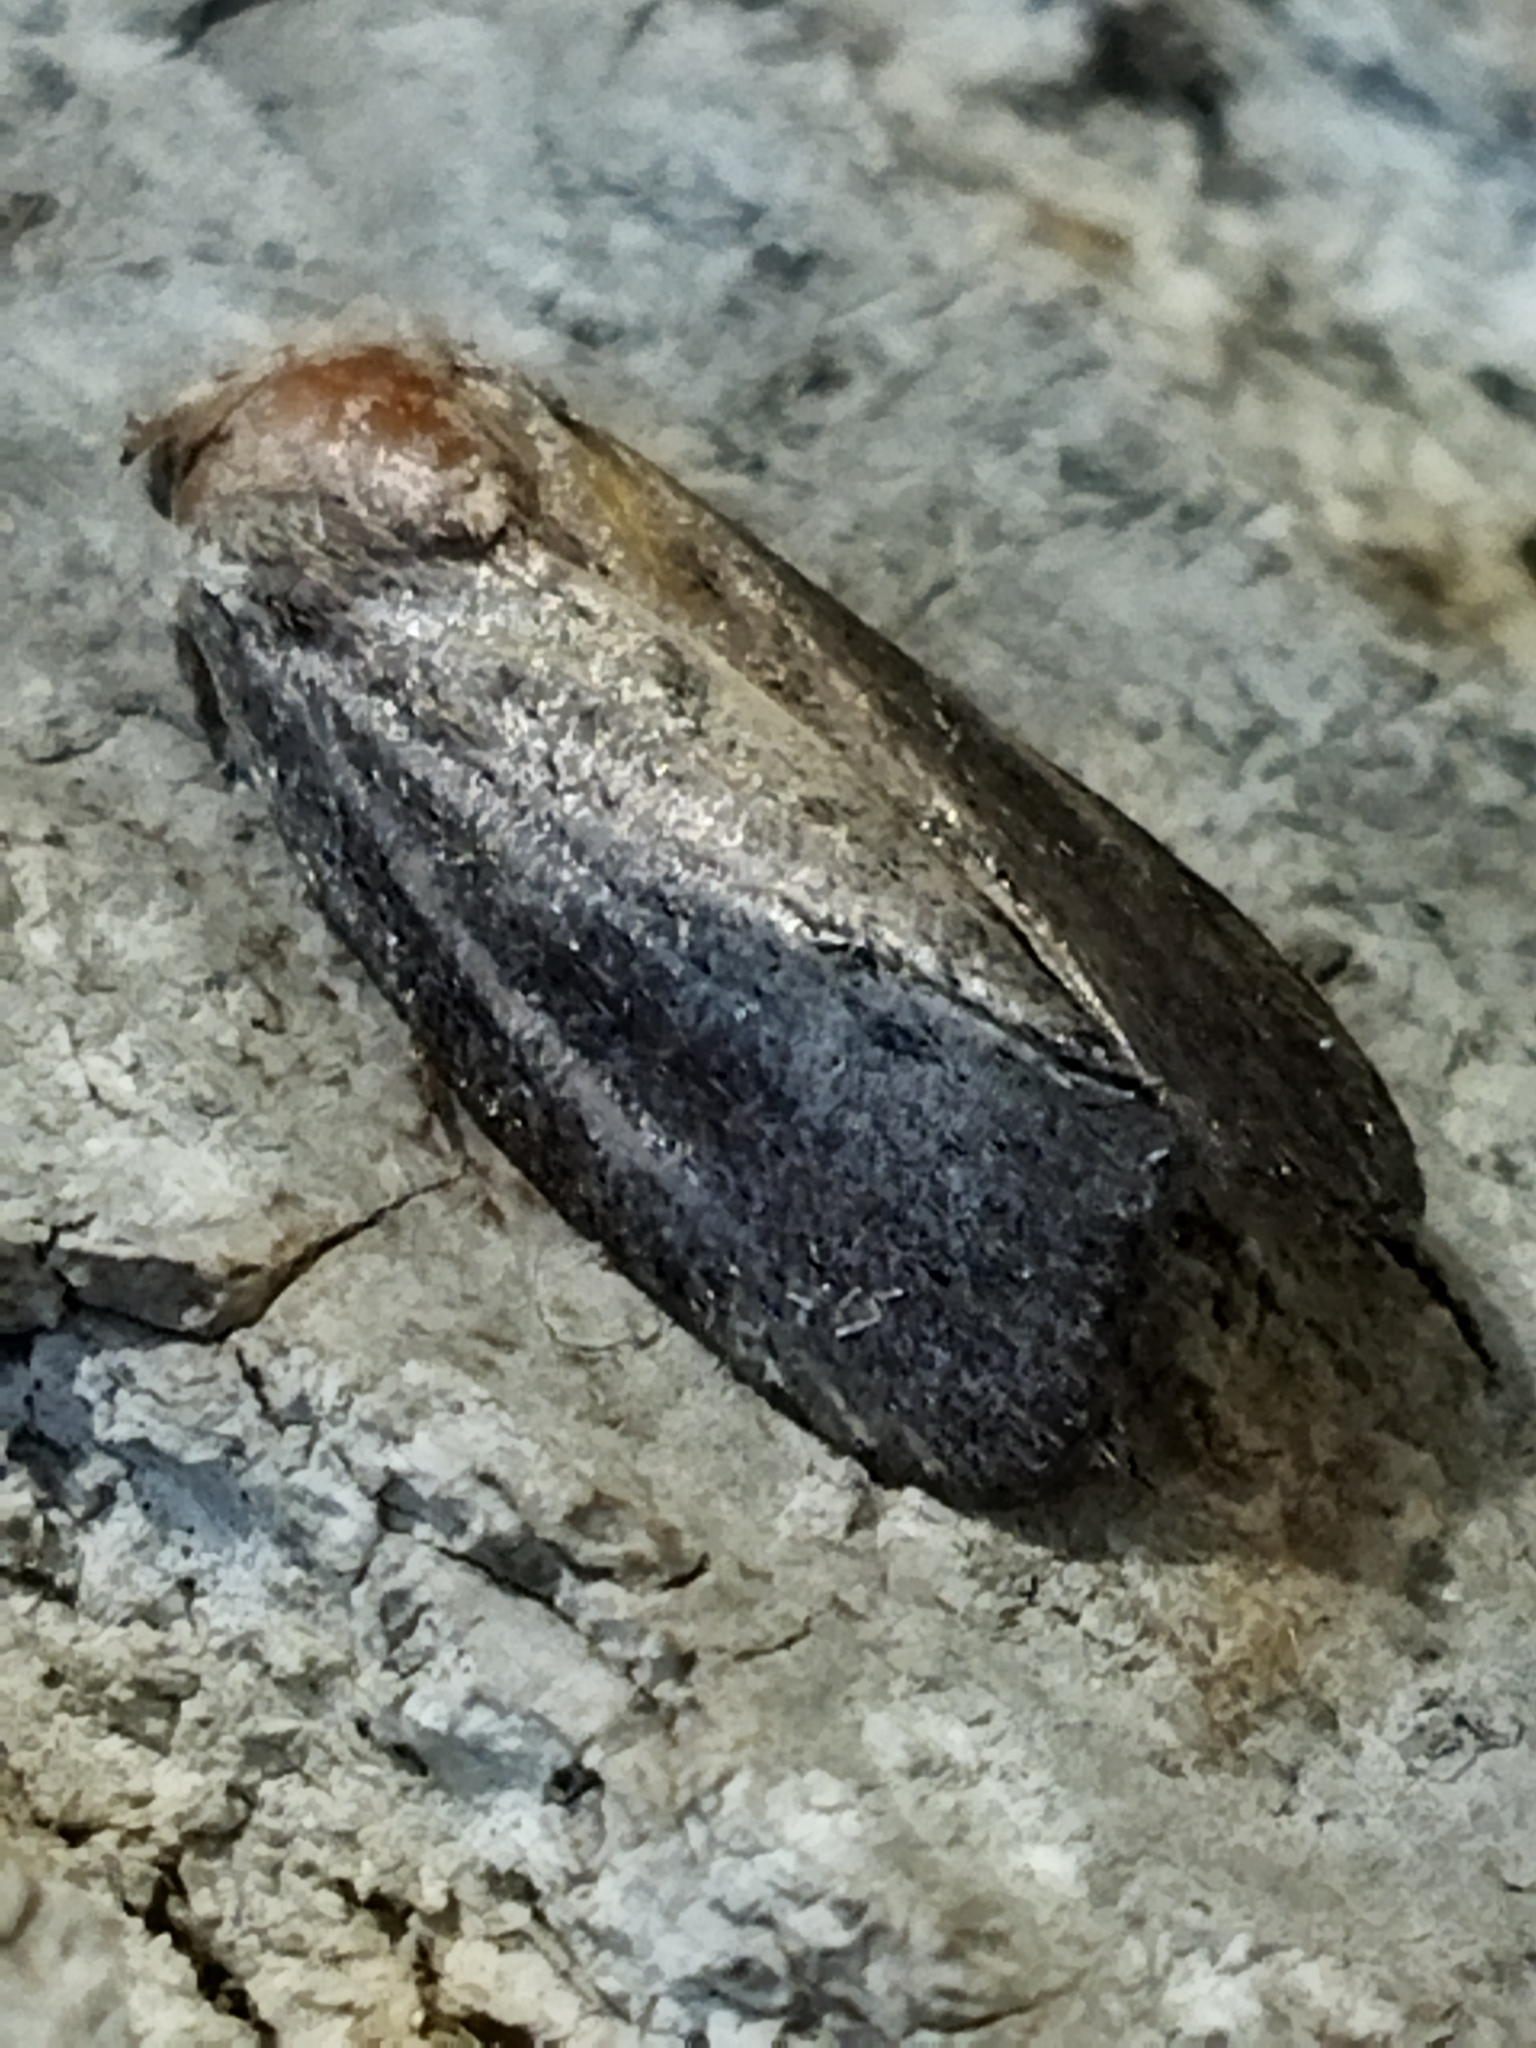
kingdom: Animalia
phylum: Arthropoda
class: Insecta
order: Lepidoptera
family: Pyralidae
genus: Galleria
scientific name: Galleria mellonella
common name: Greater wax moth
